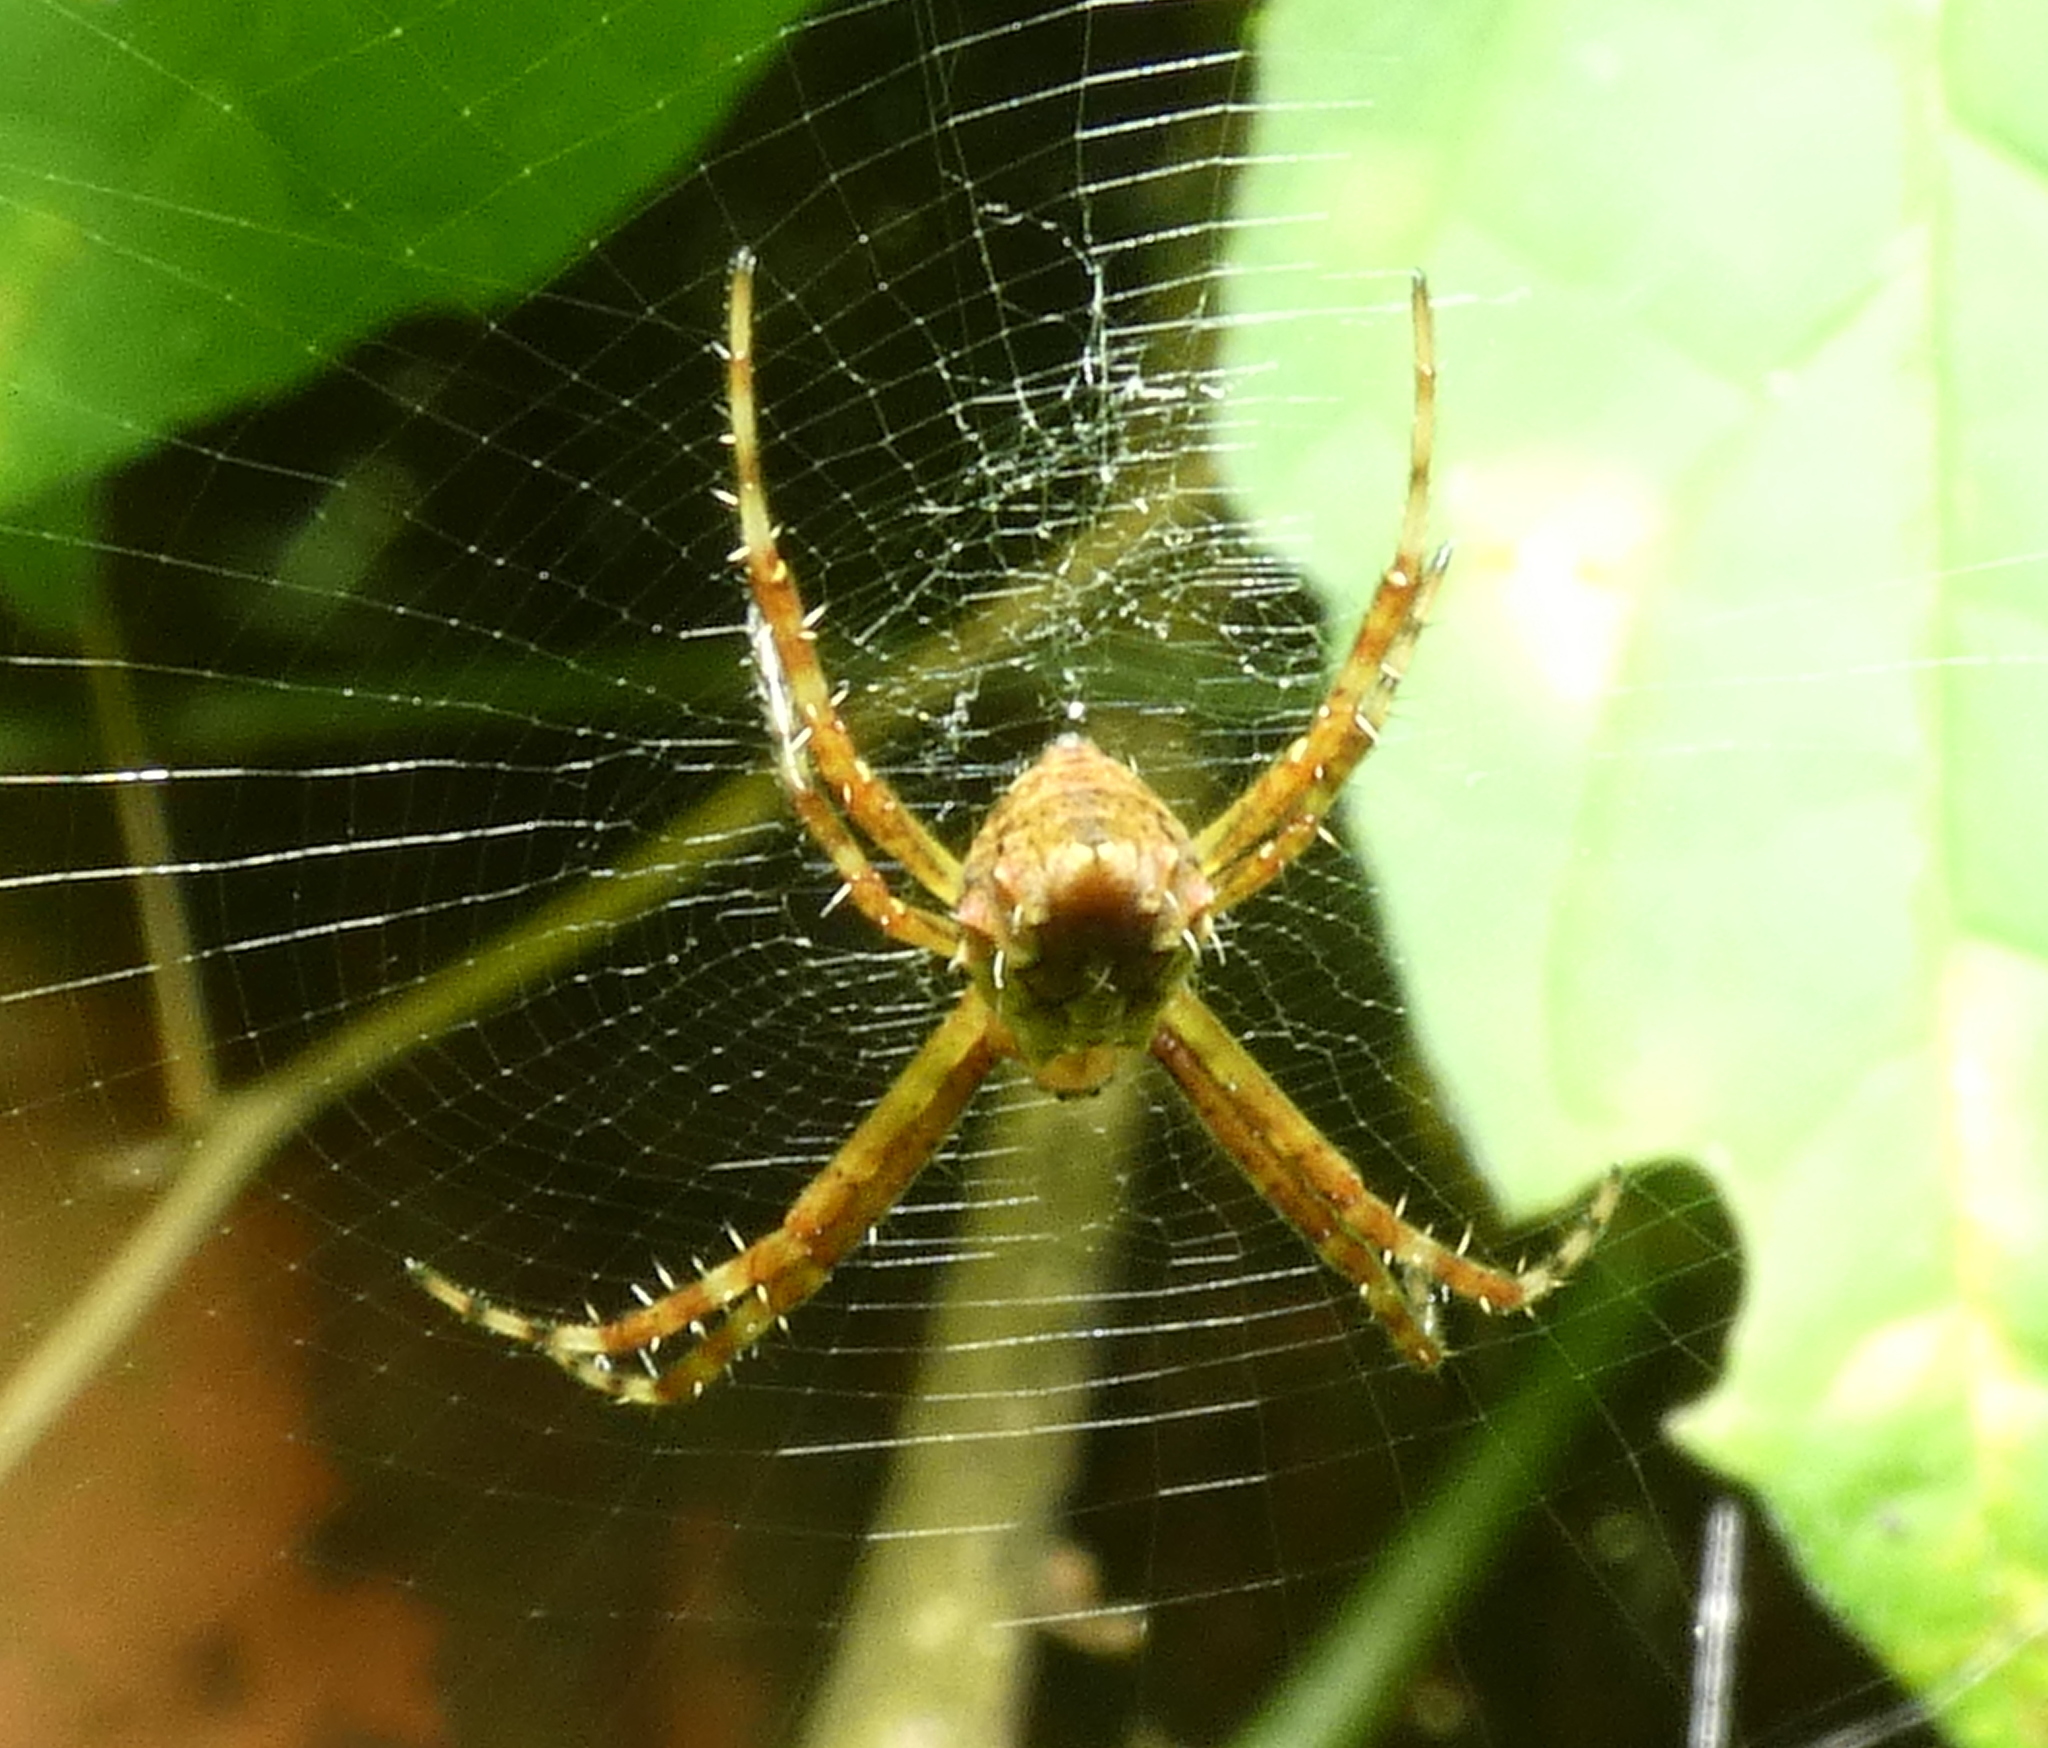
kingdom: Animalia
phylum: Arthropoda
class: Arachnida
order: Araneae
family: Araneidae
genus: Argiope
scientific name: Argiope argentata
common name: Orb weavers
